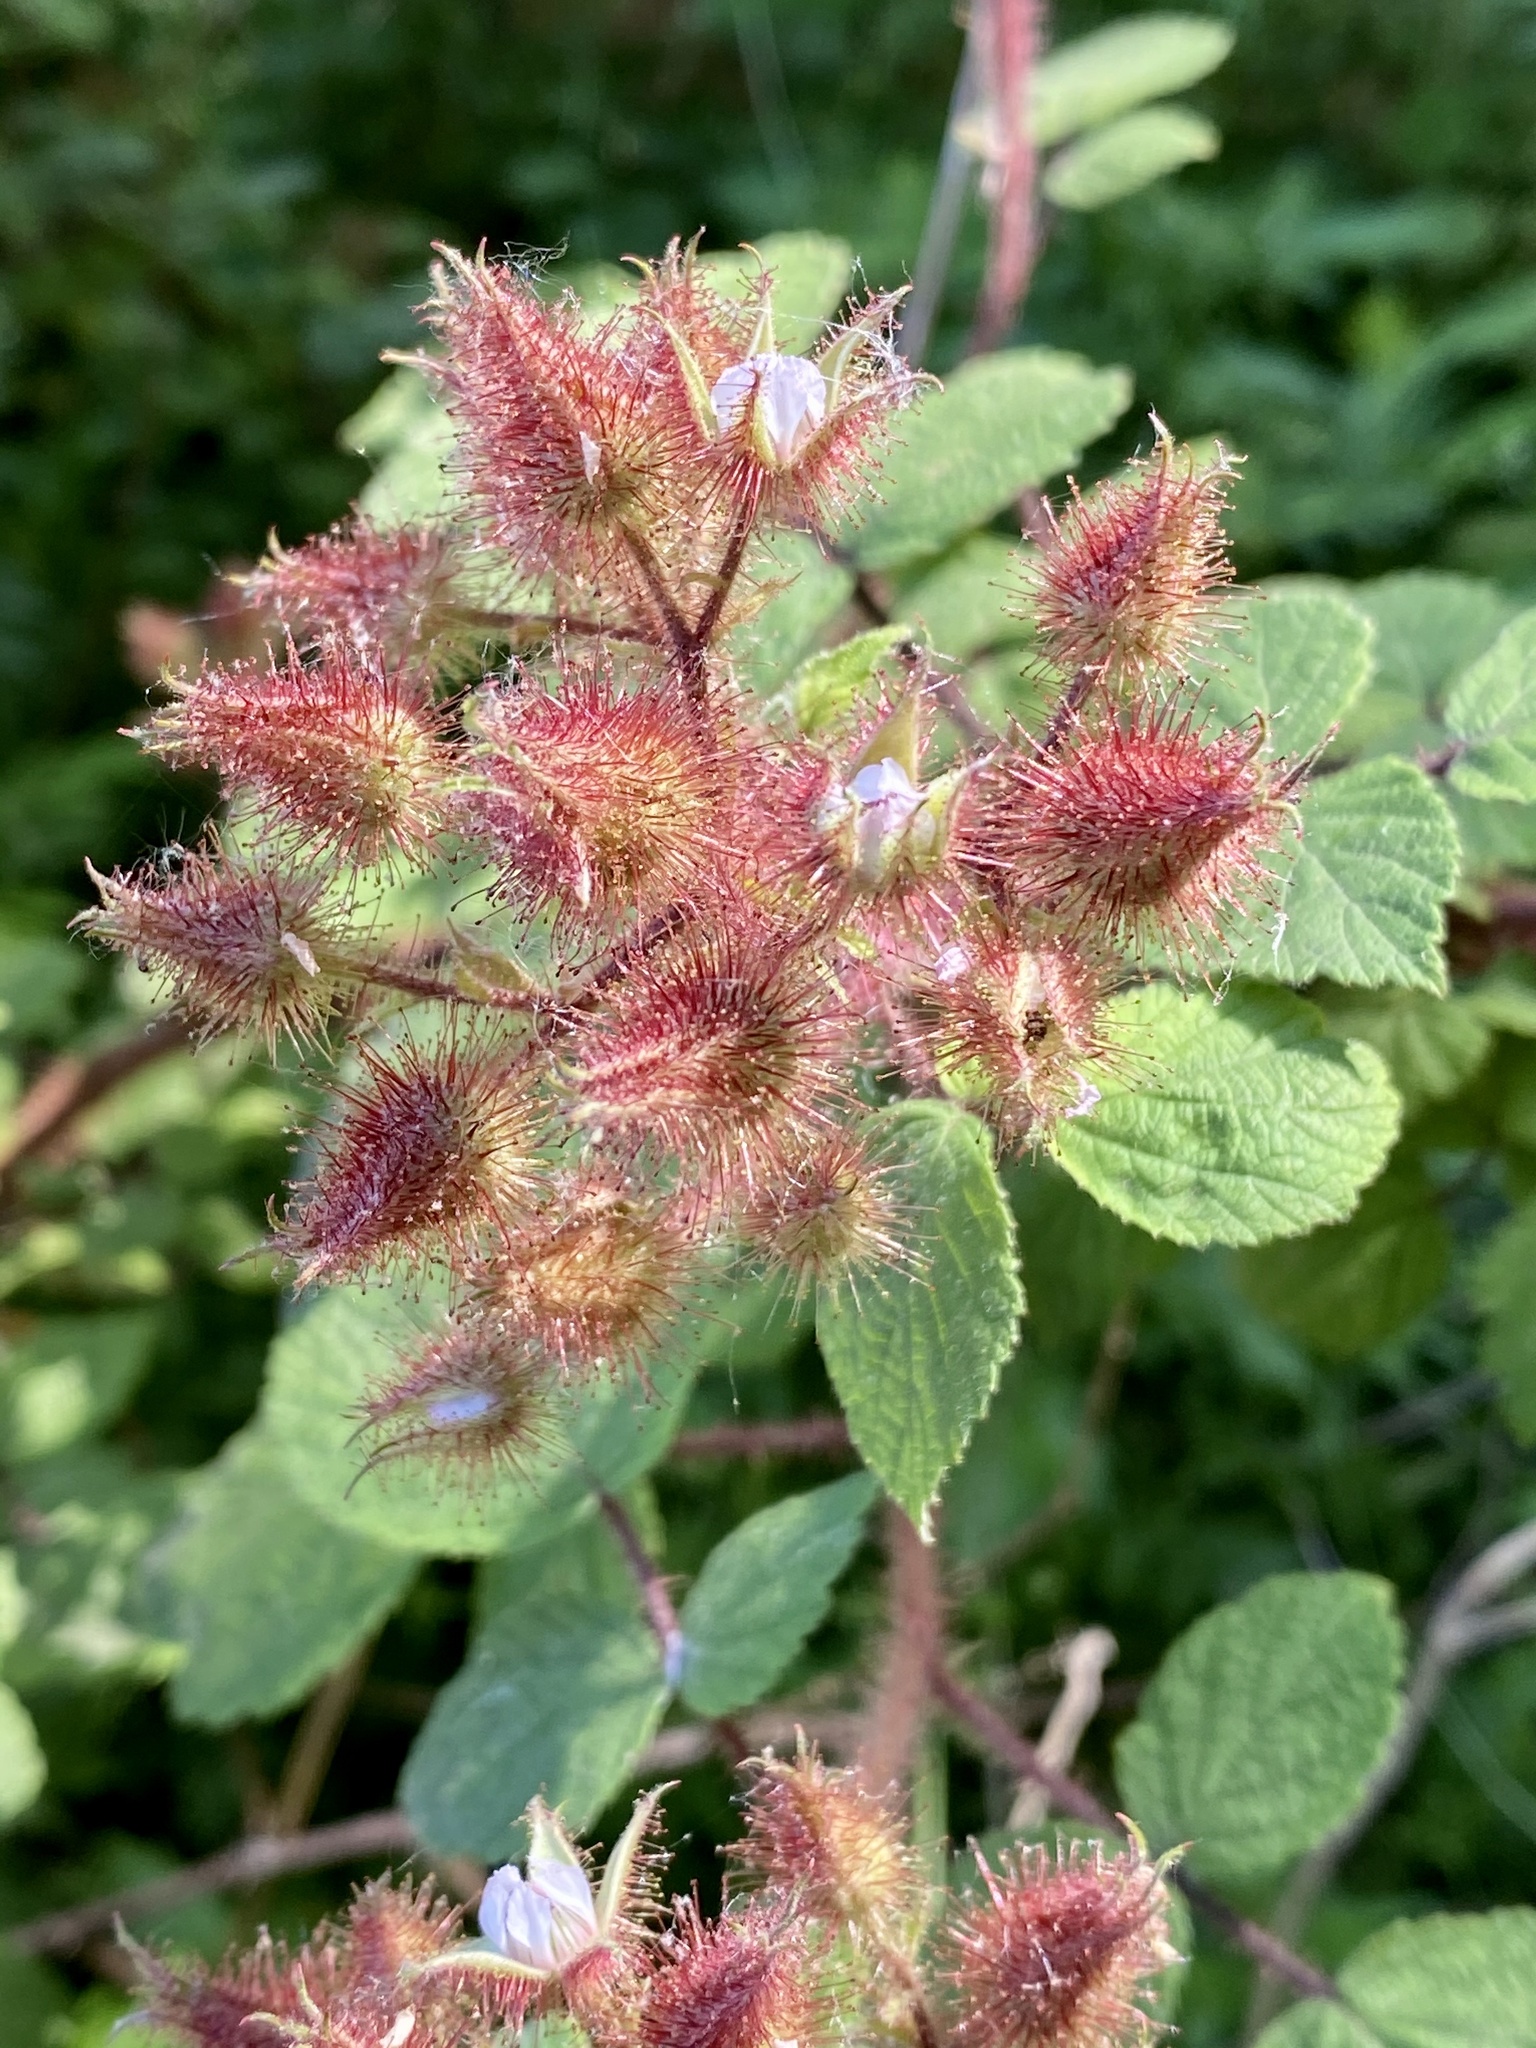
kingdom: Plantae
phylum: Tracheophyta
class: Magnoliopsida
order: Rosales
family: Rosaceae
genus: Rubus
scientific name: Rubus phoenicolasius
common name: Japanese wineberry
